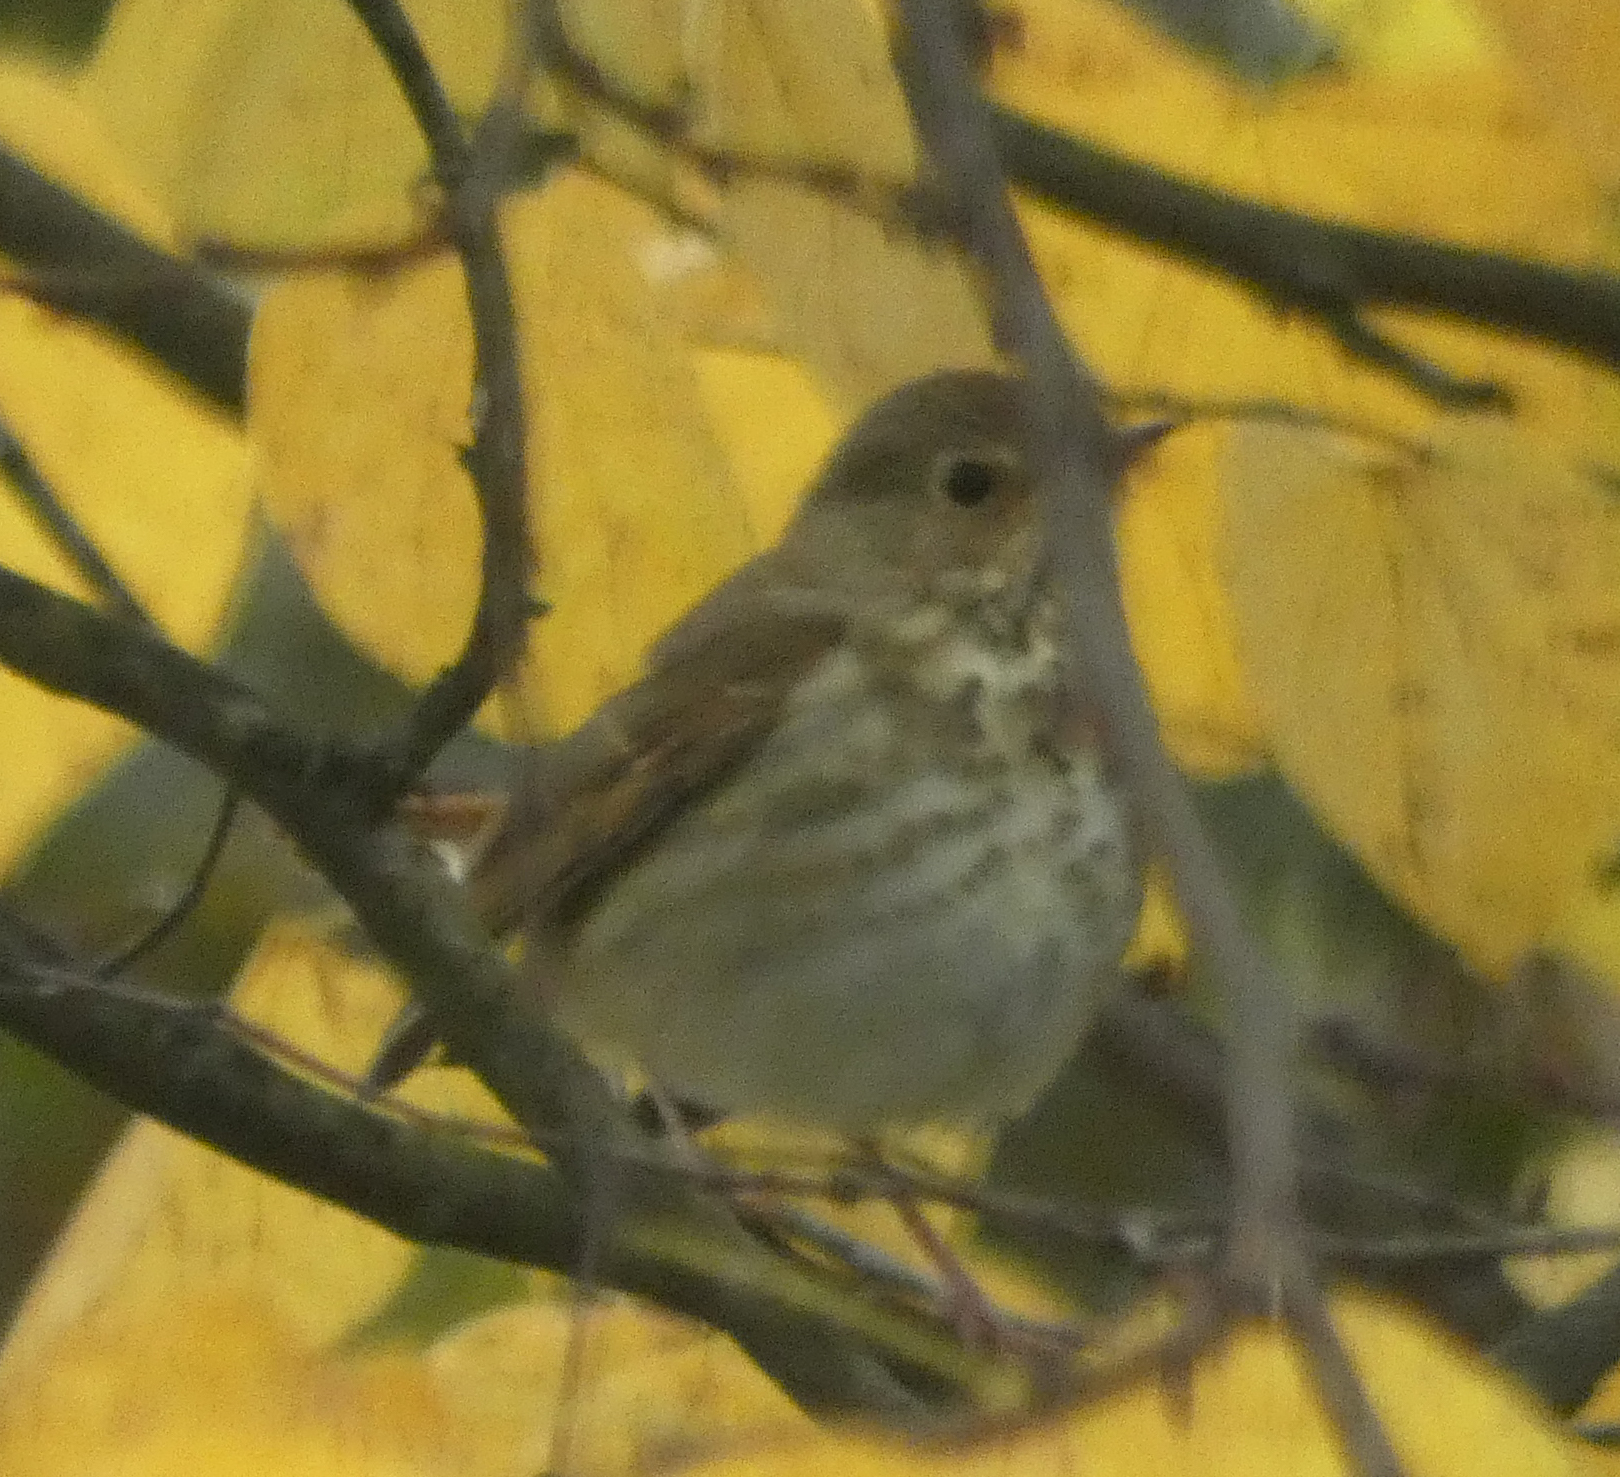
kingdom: Animalia
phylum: Chordata
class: Aves
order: Passeriformes
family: Turdidae
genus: Catharus
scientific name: Catharus guttatus
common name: Hermit thrush
